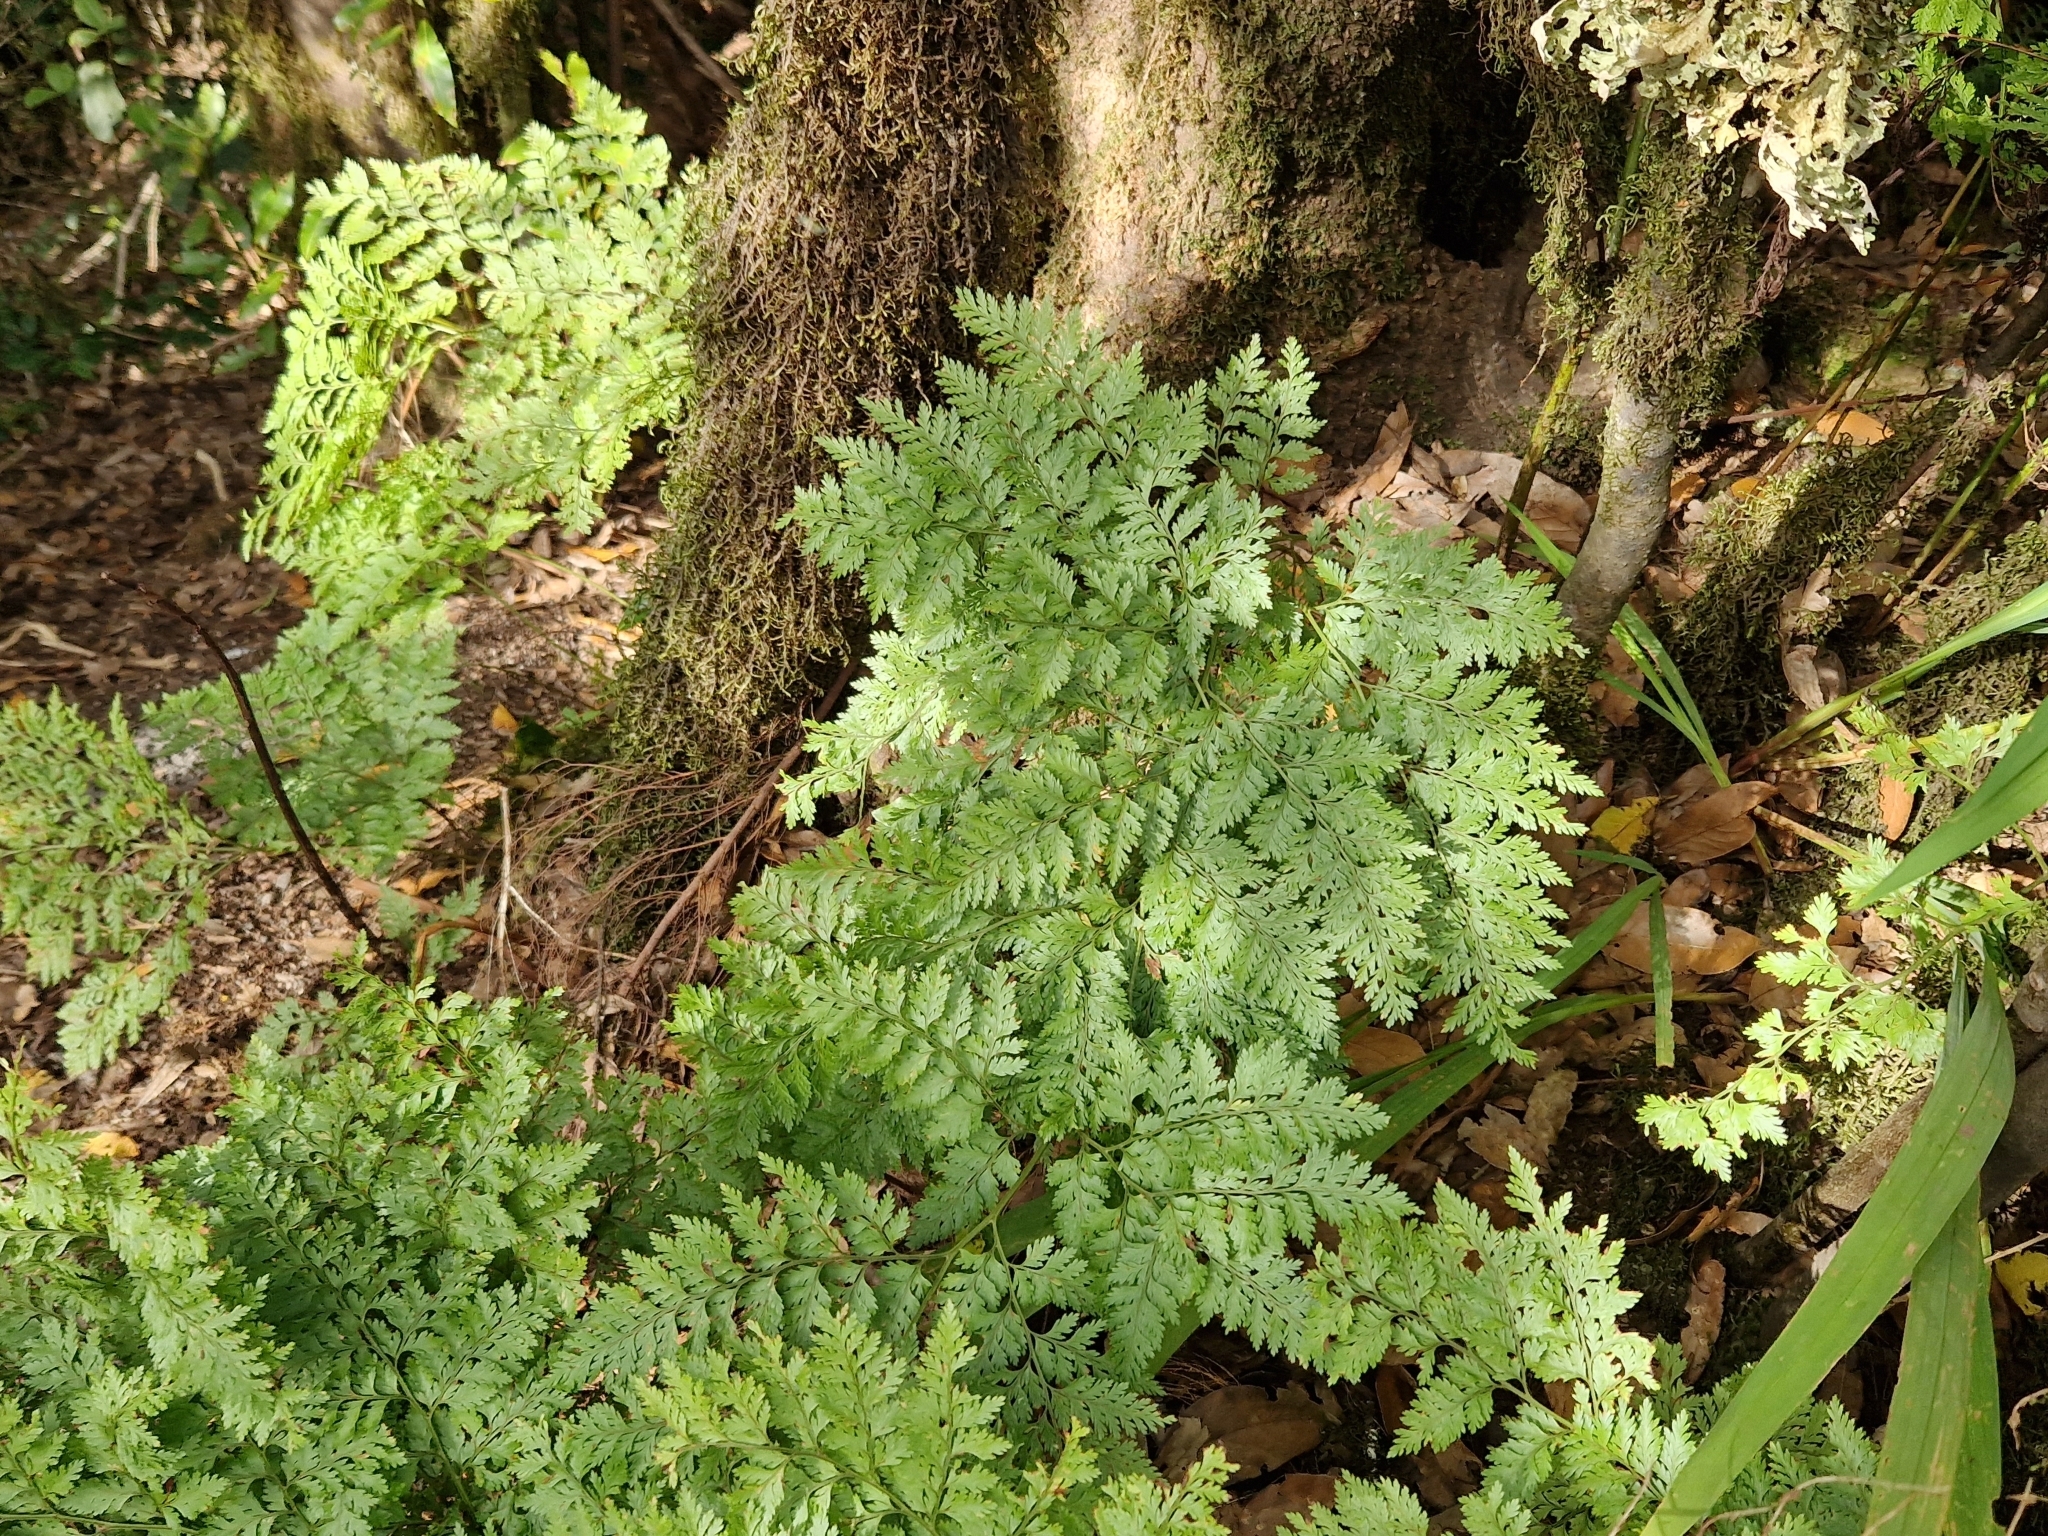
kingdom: Plantae
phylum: Tracheophyta
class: Polypodiopsida
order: Polypodiales
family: Davalliaceae
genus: Davallia
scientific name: Davallia canariensis
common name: Hare's-foot fern
